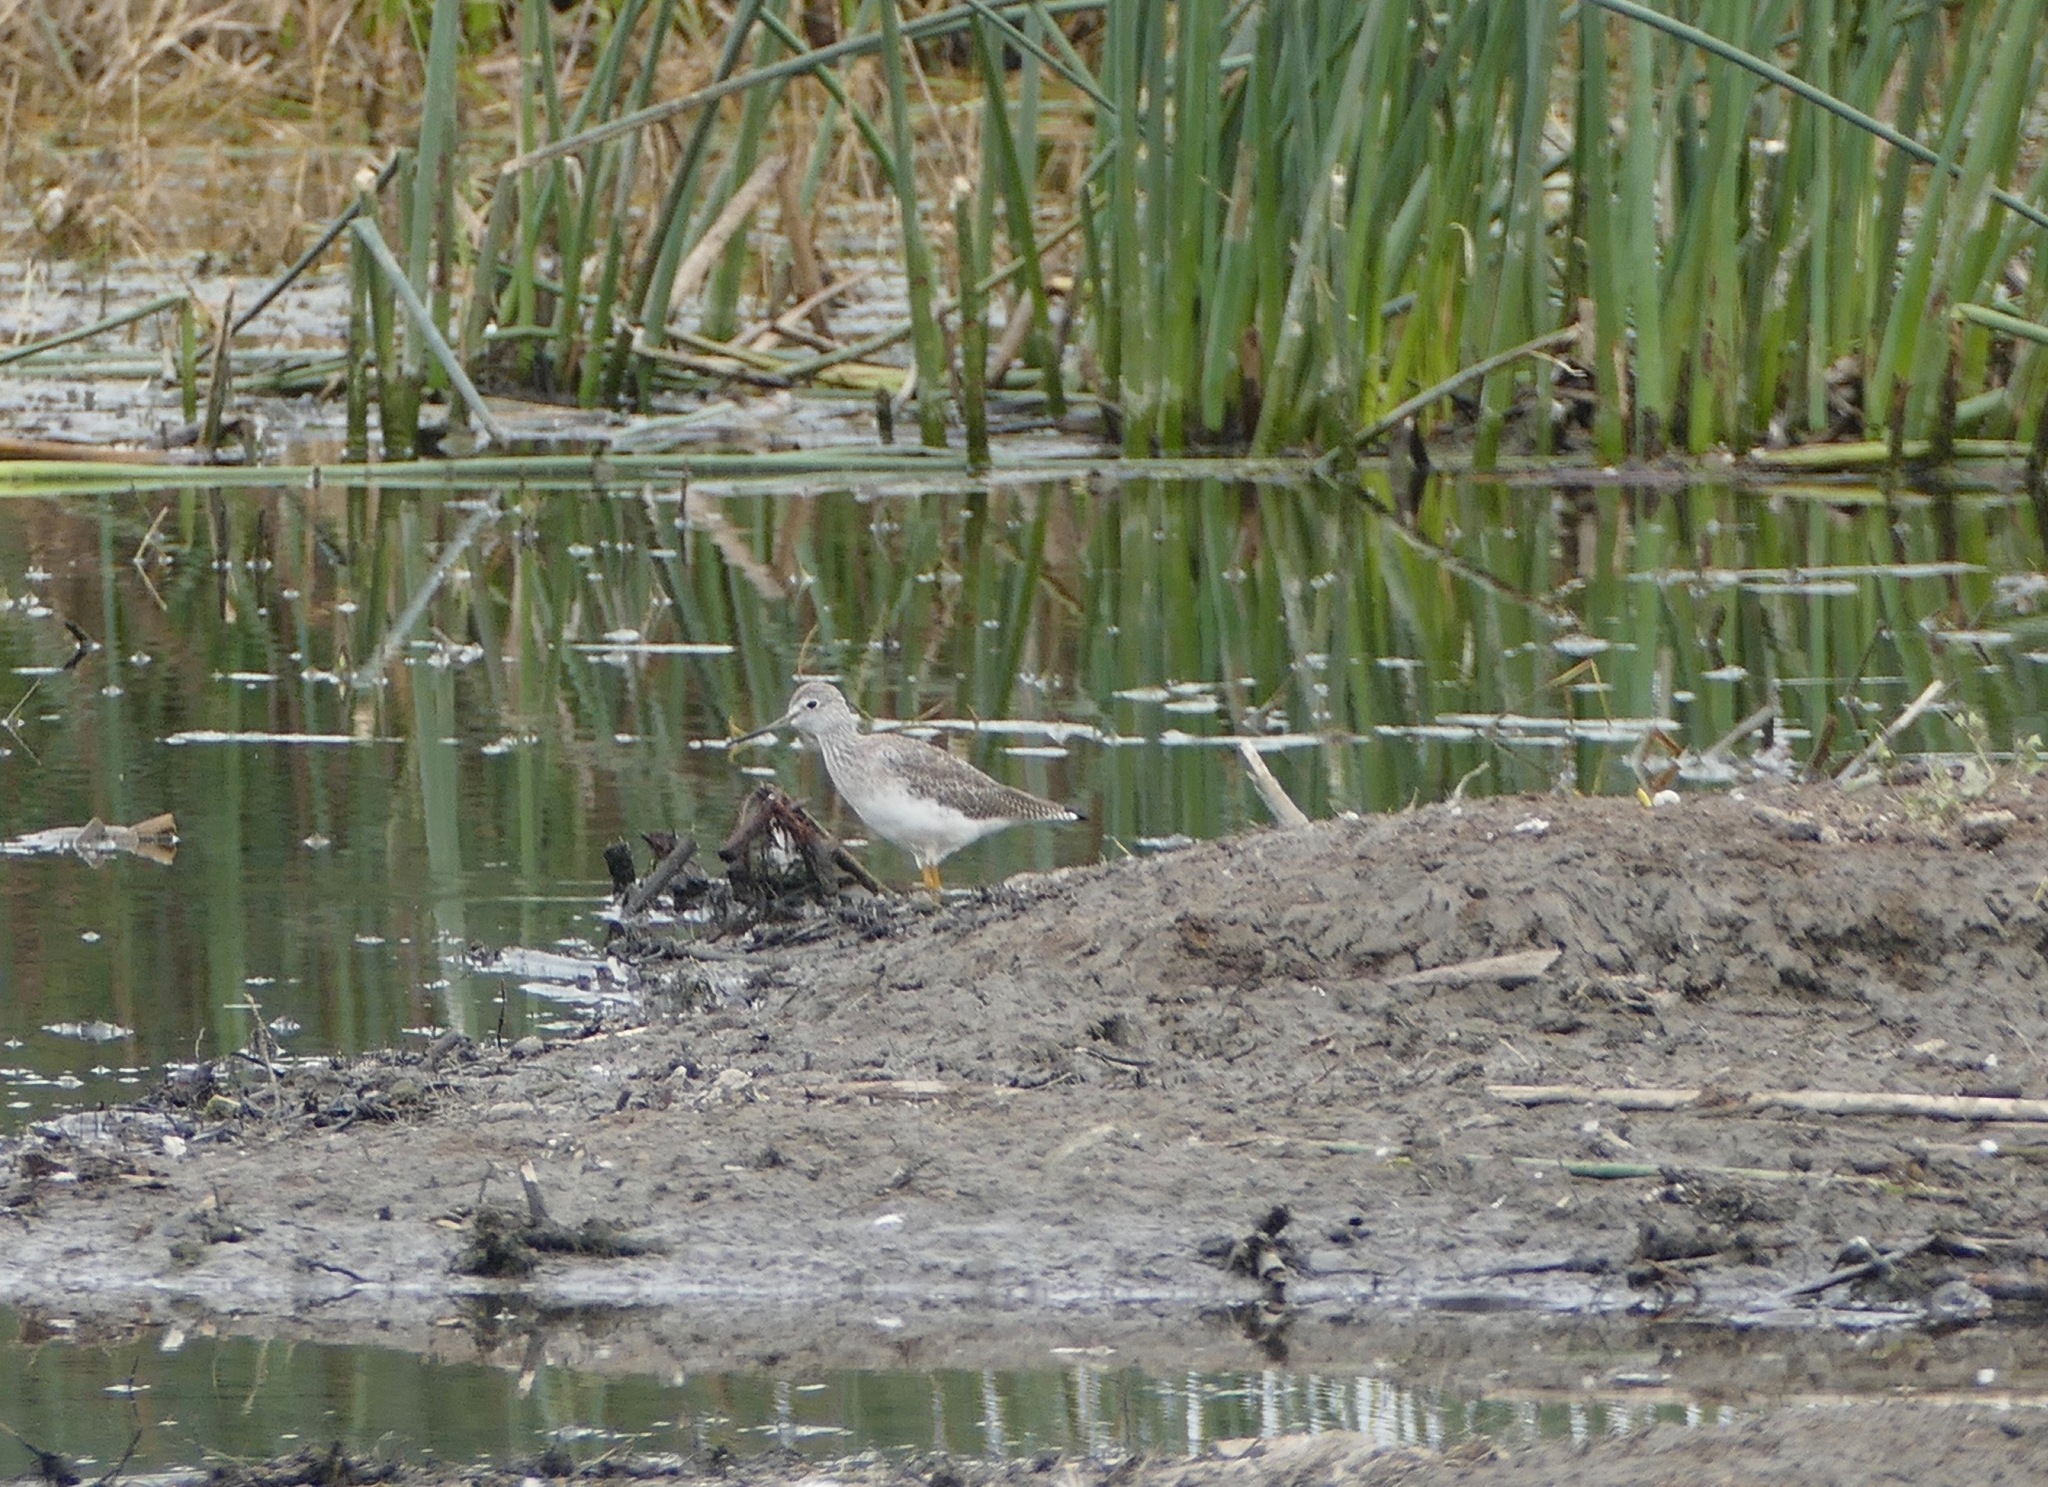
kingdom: Animalia
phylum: Chordata
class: Aves
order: Charadriiformes
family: Scolopacidae
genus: Tringa
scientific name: Tringa melanoleuca
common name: Greater yellowlegs
